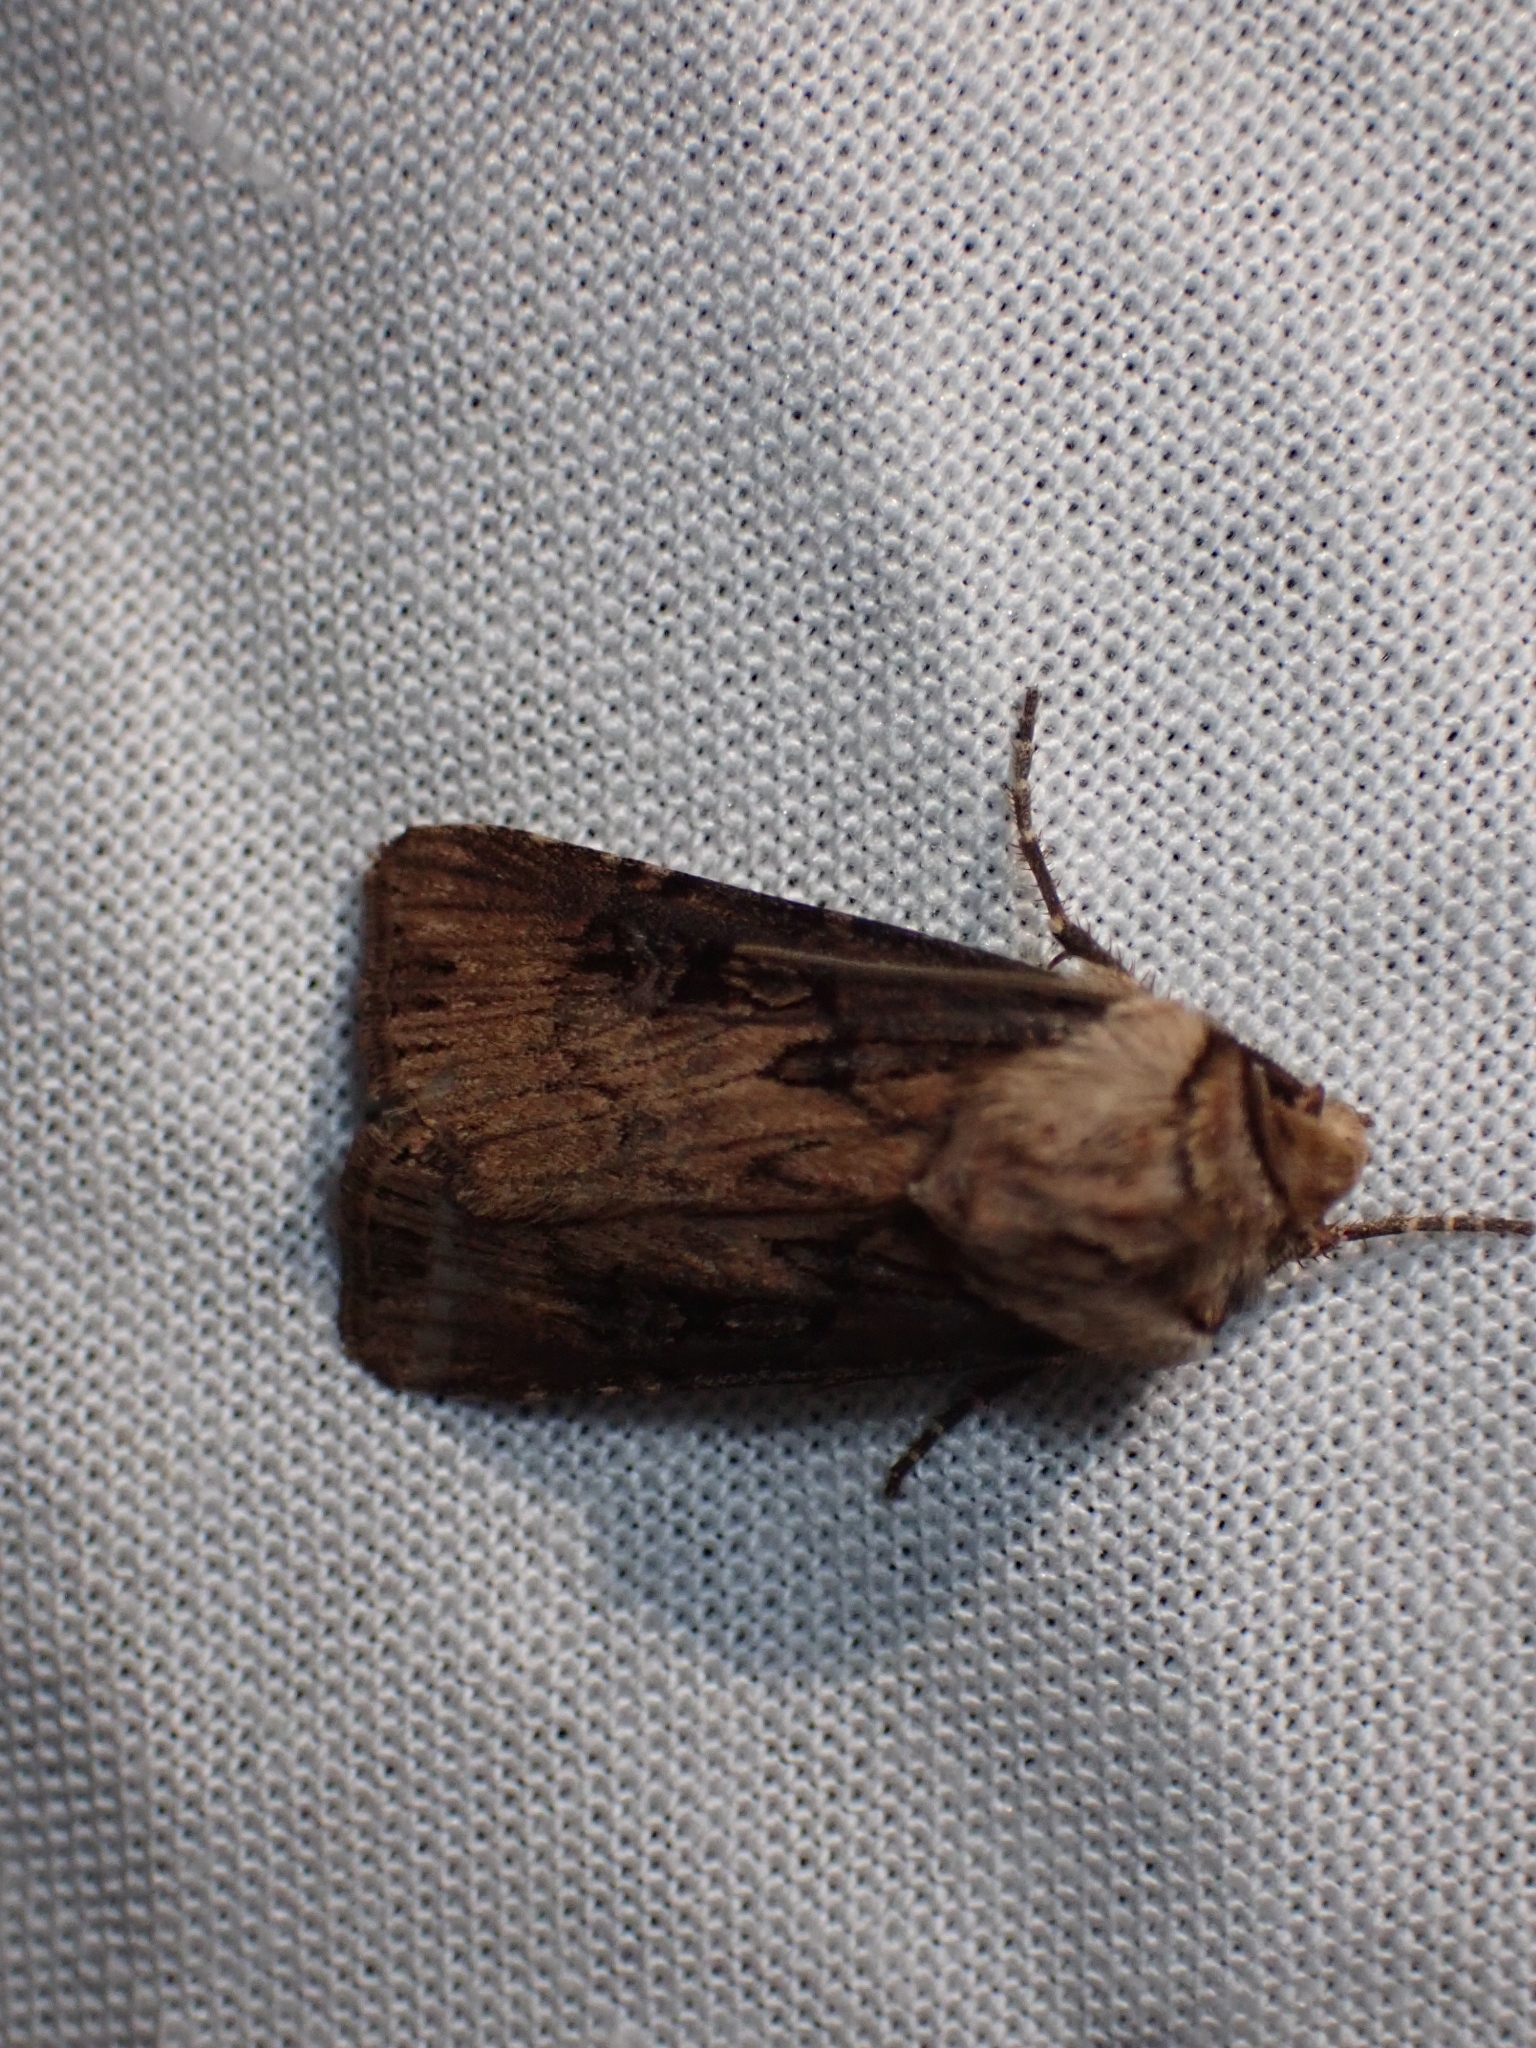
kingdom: Animalia
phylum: Arthropoda
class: Insecta
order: Lepidoptera
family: Noctuidae
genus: Agrotis
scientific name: Agrotis stigmosa
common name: Spotted dart
